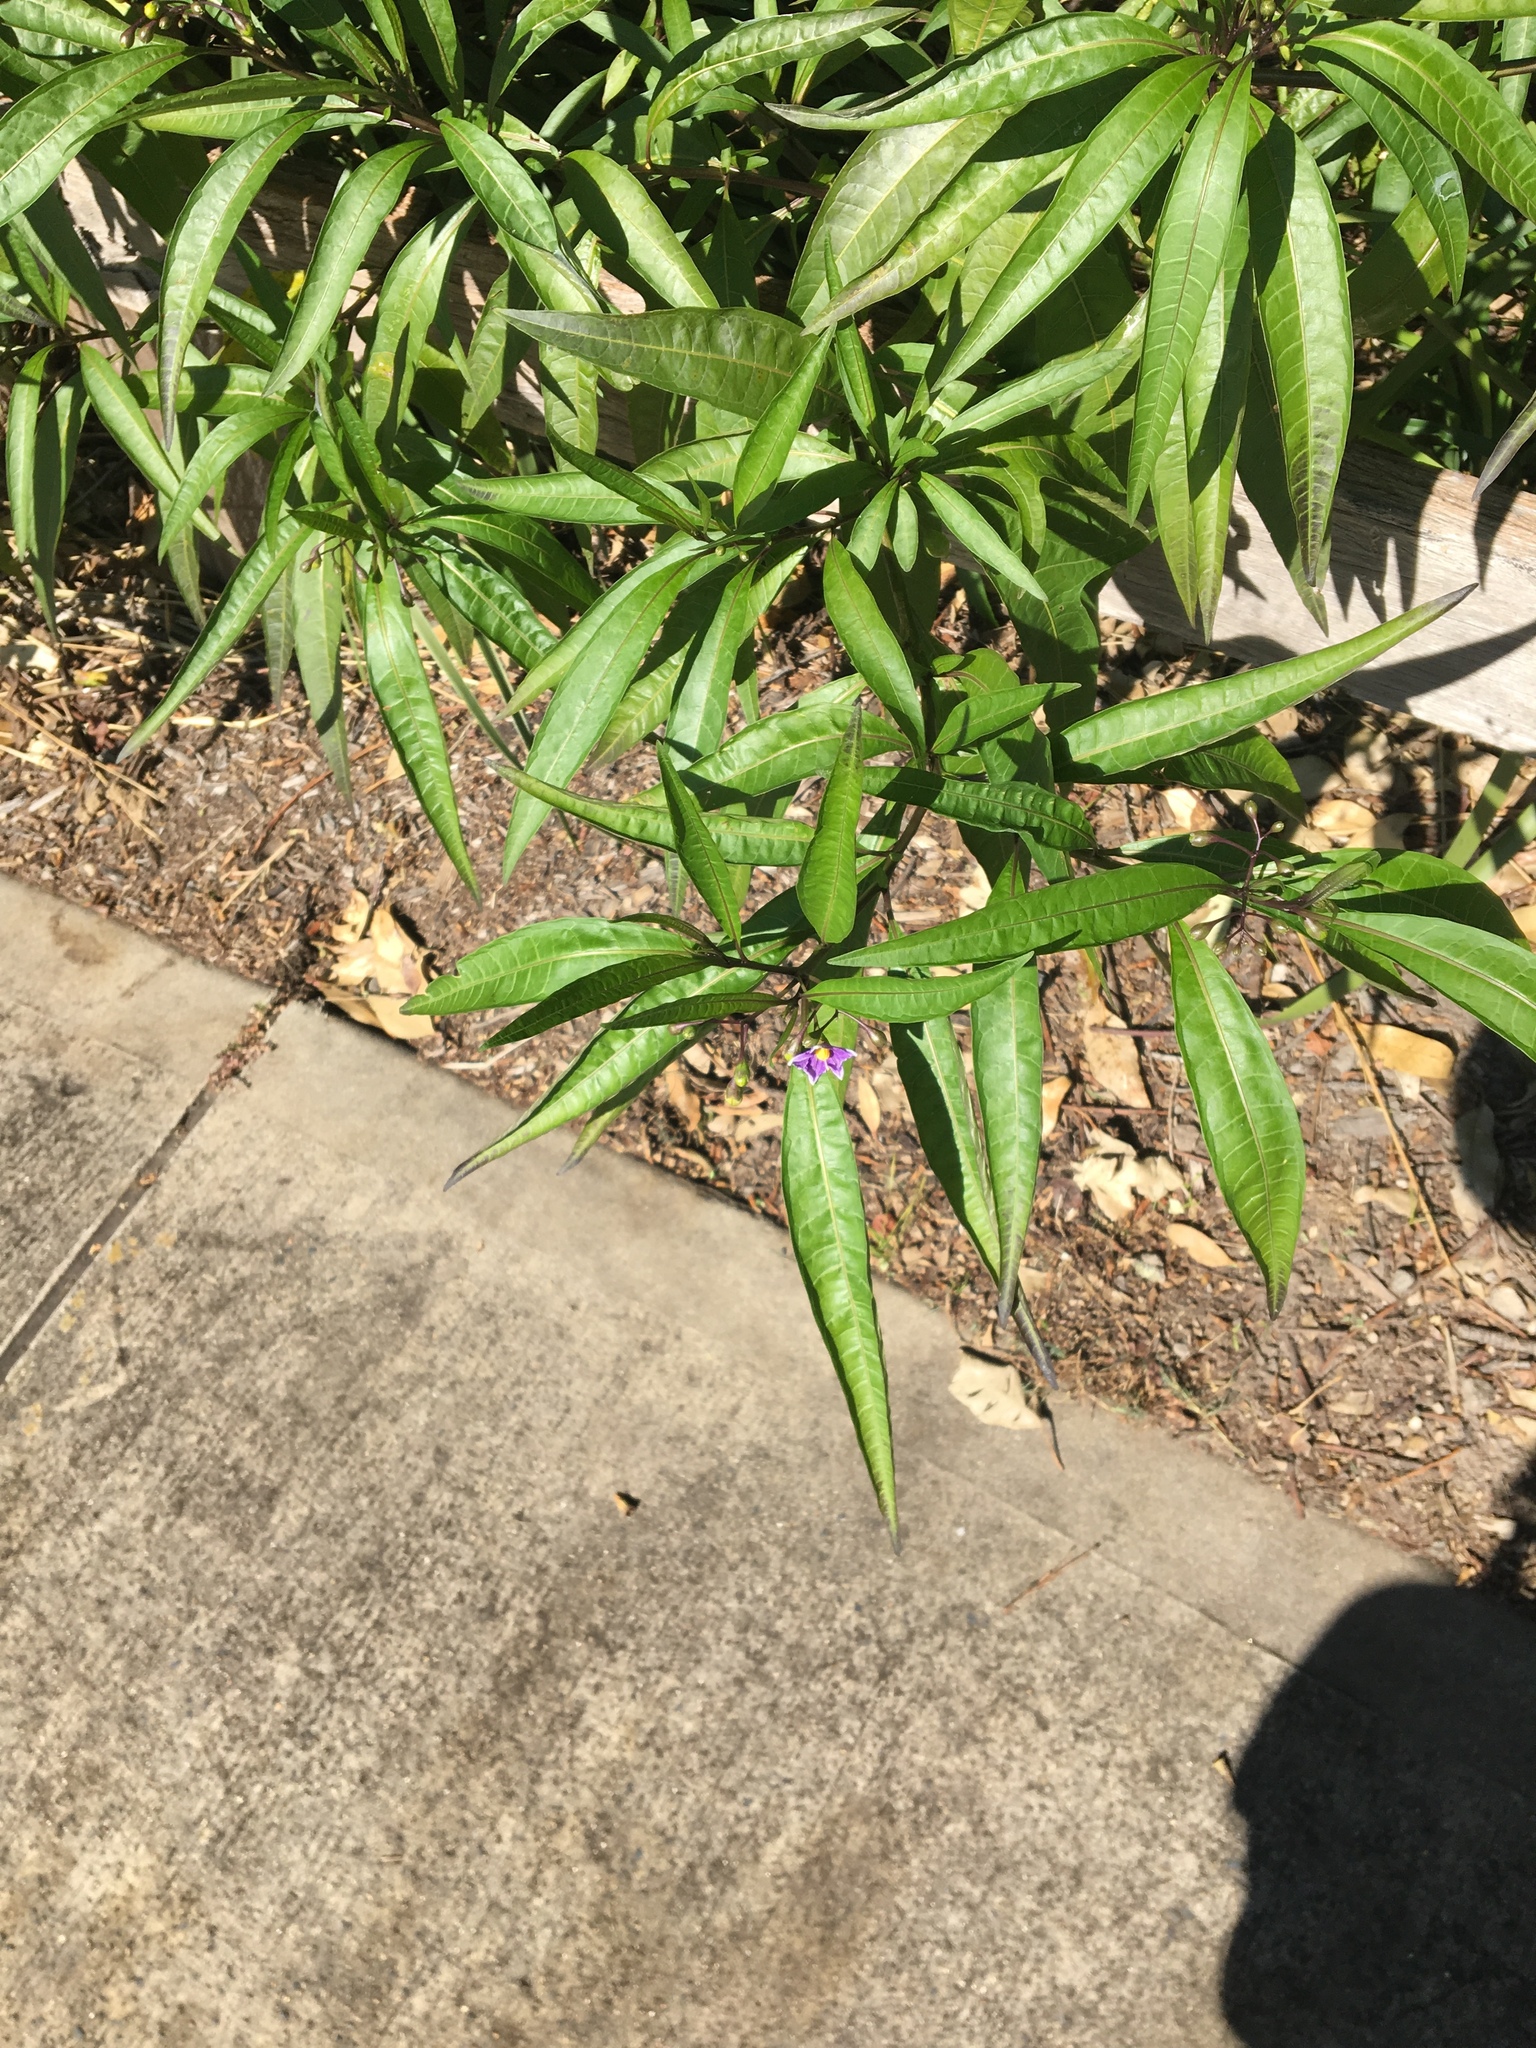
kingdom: Plantae
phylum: Tracheophyta
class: Magnoliopsida
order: Solanales
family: Solanaceae
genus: Solanum
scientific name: Solanum aviculare
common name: New zealand nightshade
